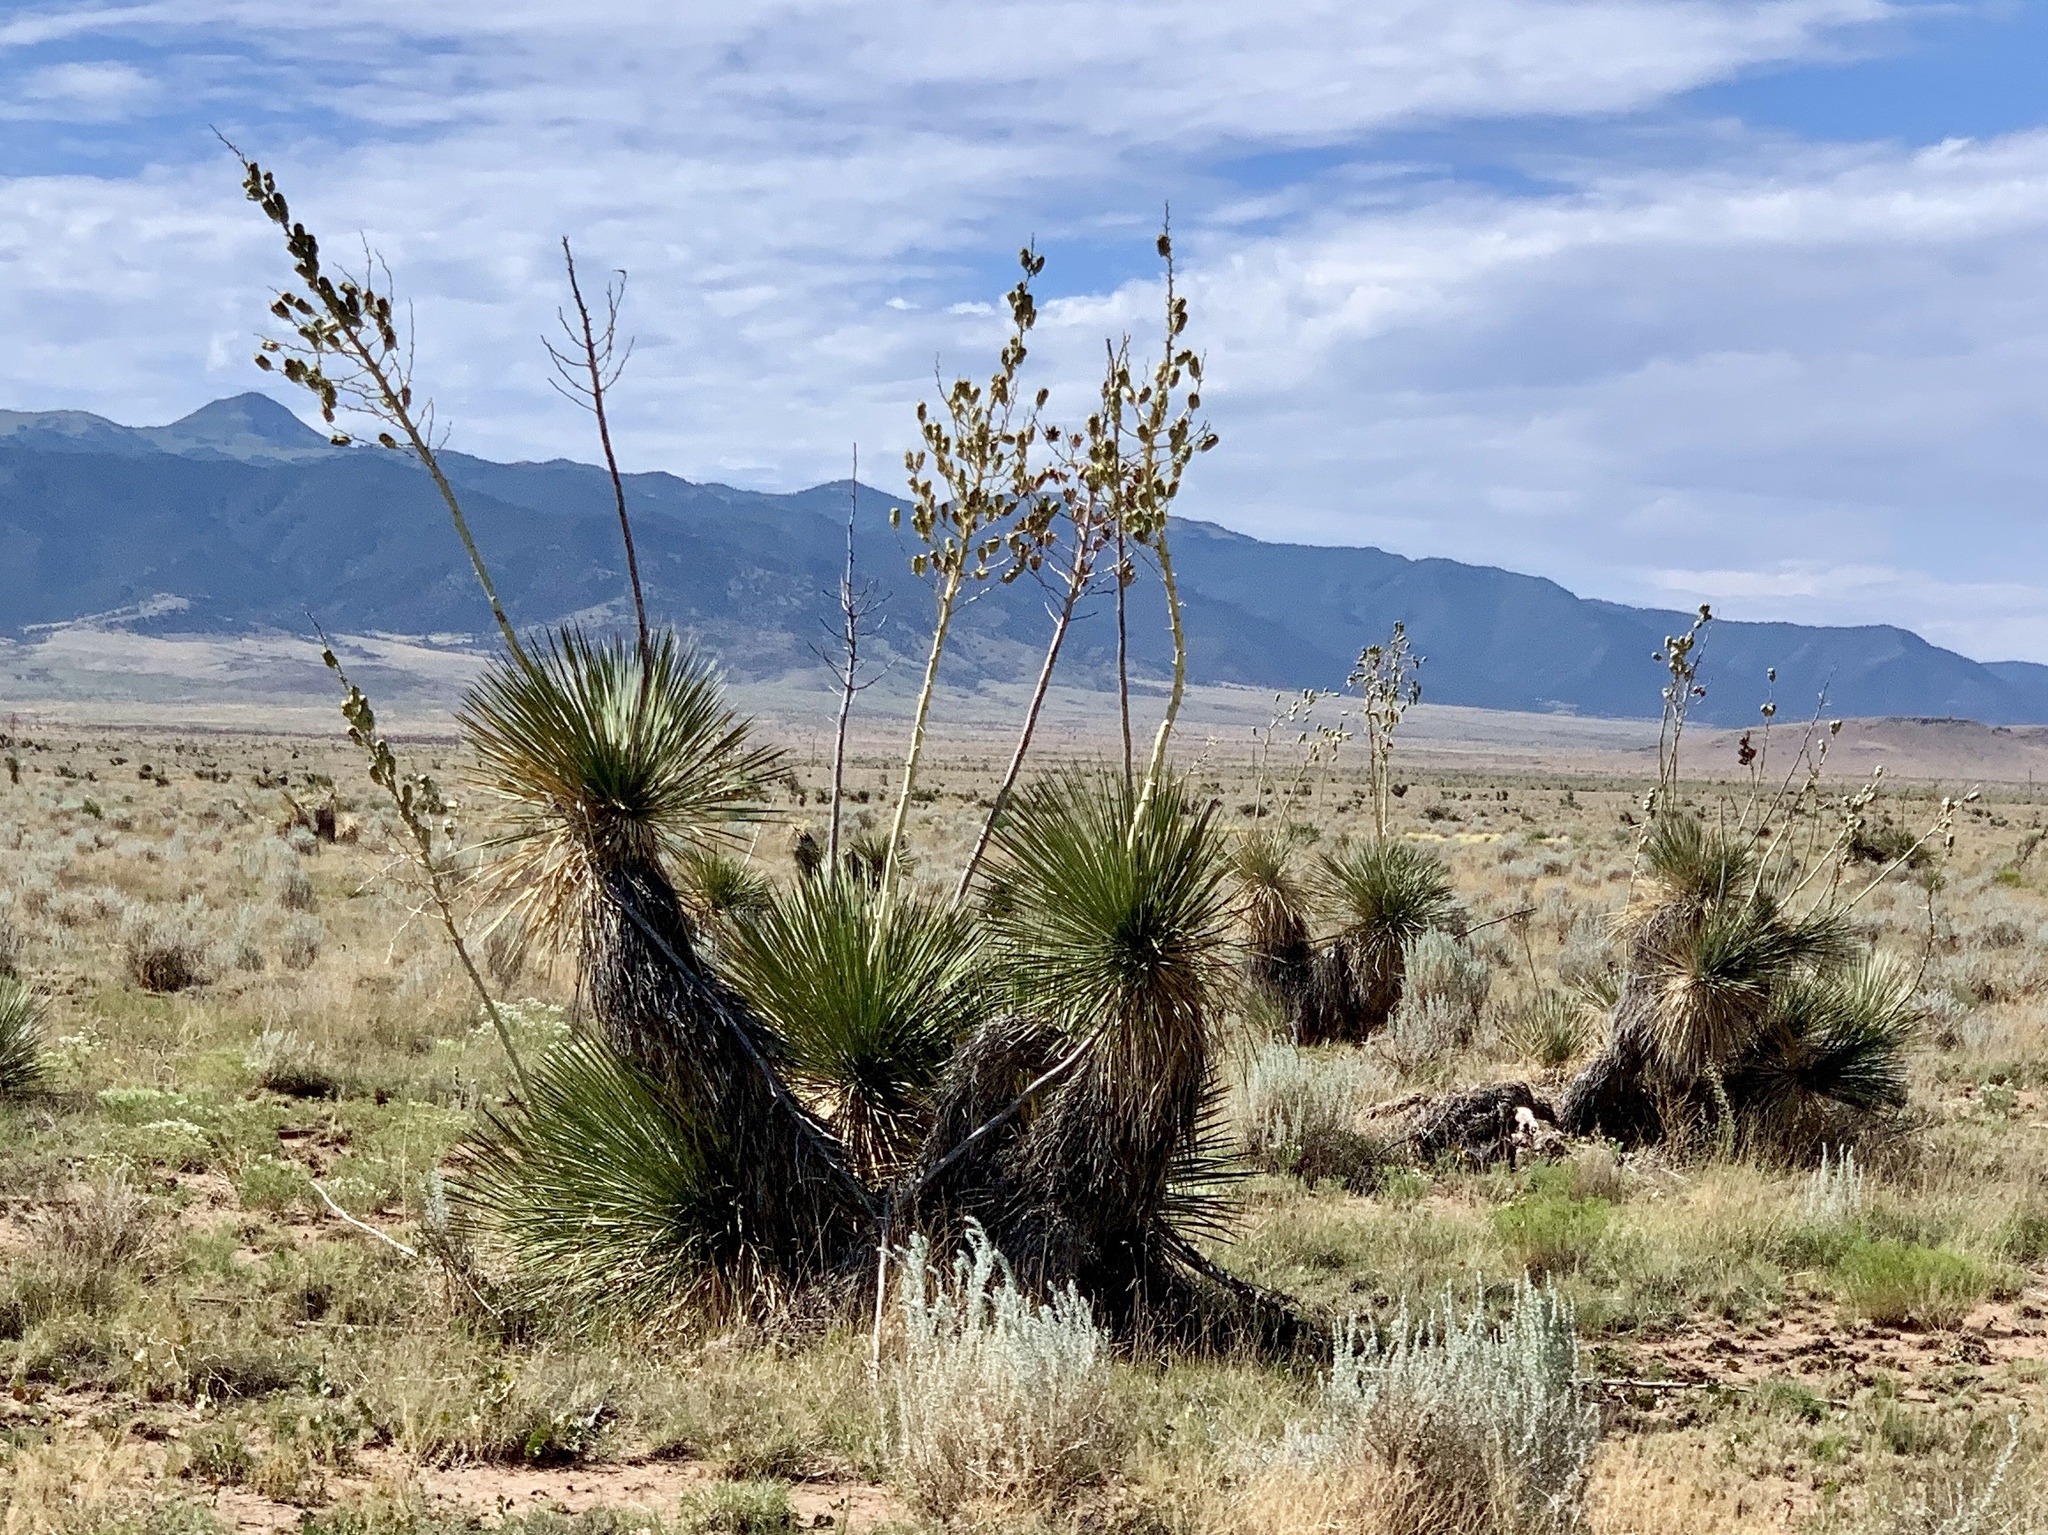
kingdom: Plantae
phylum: Tracheophyta
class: Liliopsida
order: Asparagales
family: Asparagaceae
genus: Yucca
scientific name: Yucca elata
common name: Palmella
